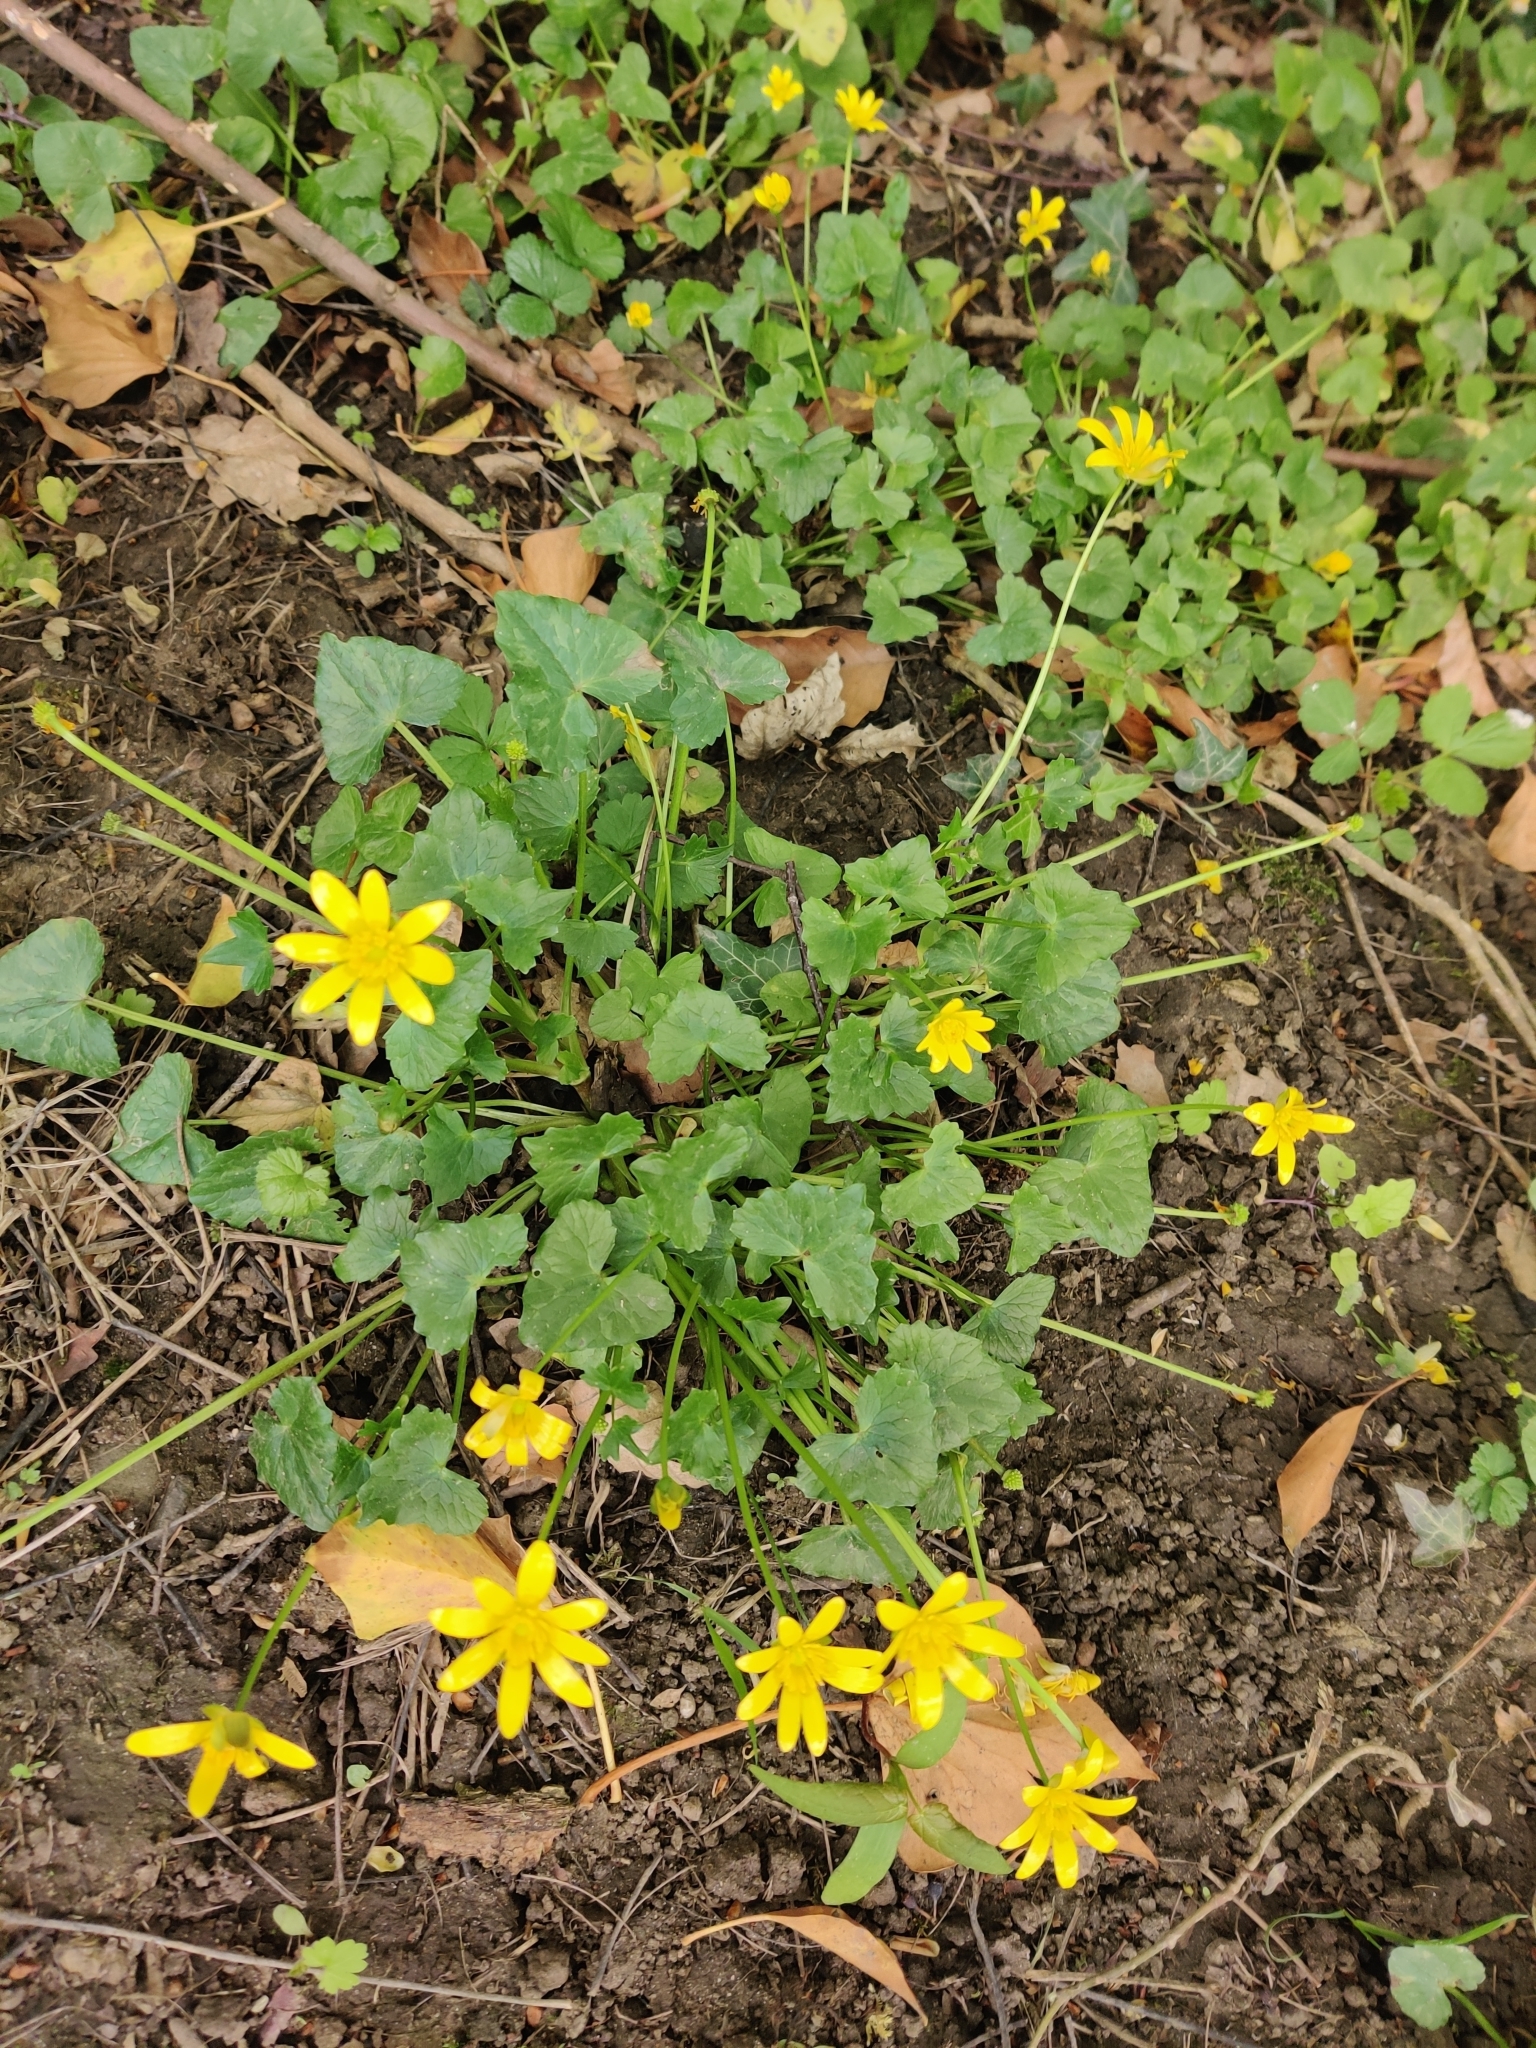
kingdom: Plantae
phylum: Tracheophyta
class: Magnoliopsida
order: Ranunculales
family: Ranunculaceae
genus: Ficaria
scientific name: Ficaria verna
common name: Lesser celandine
